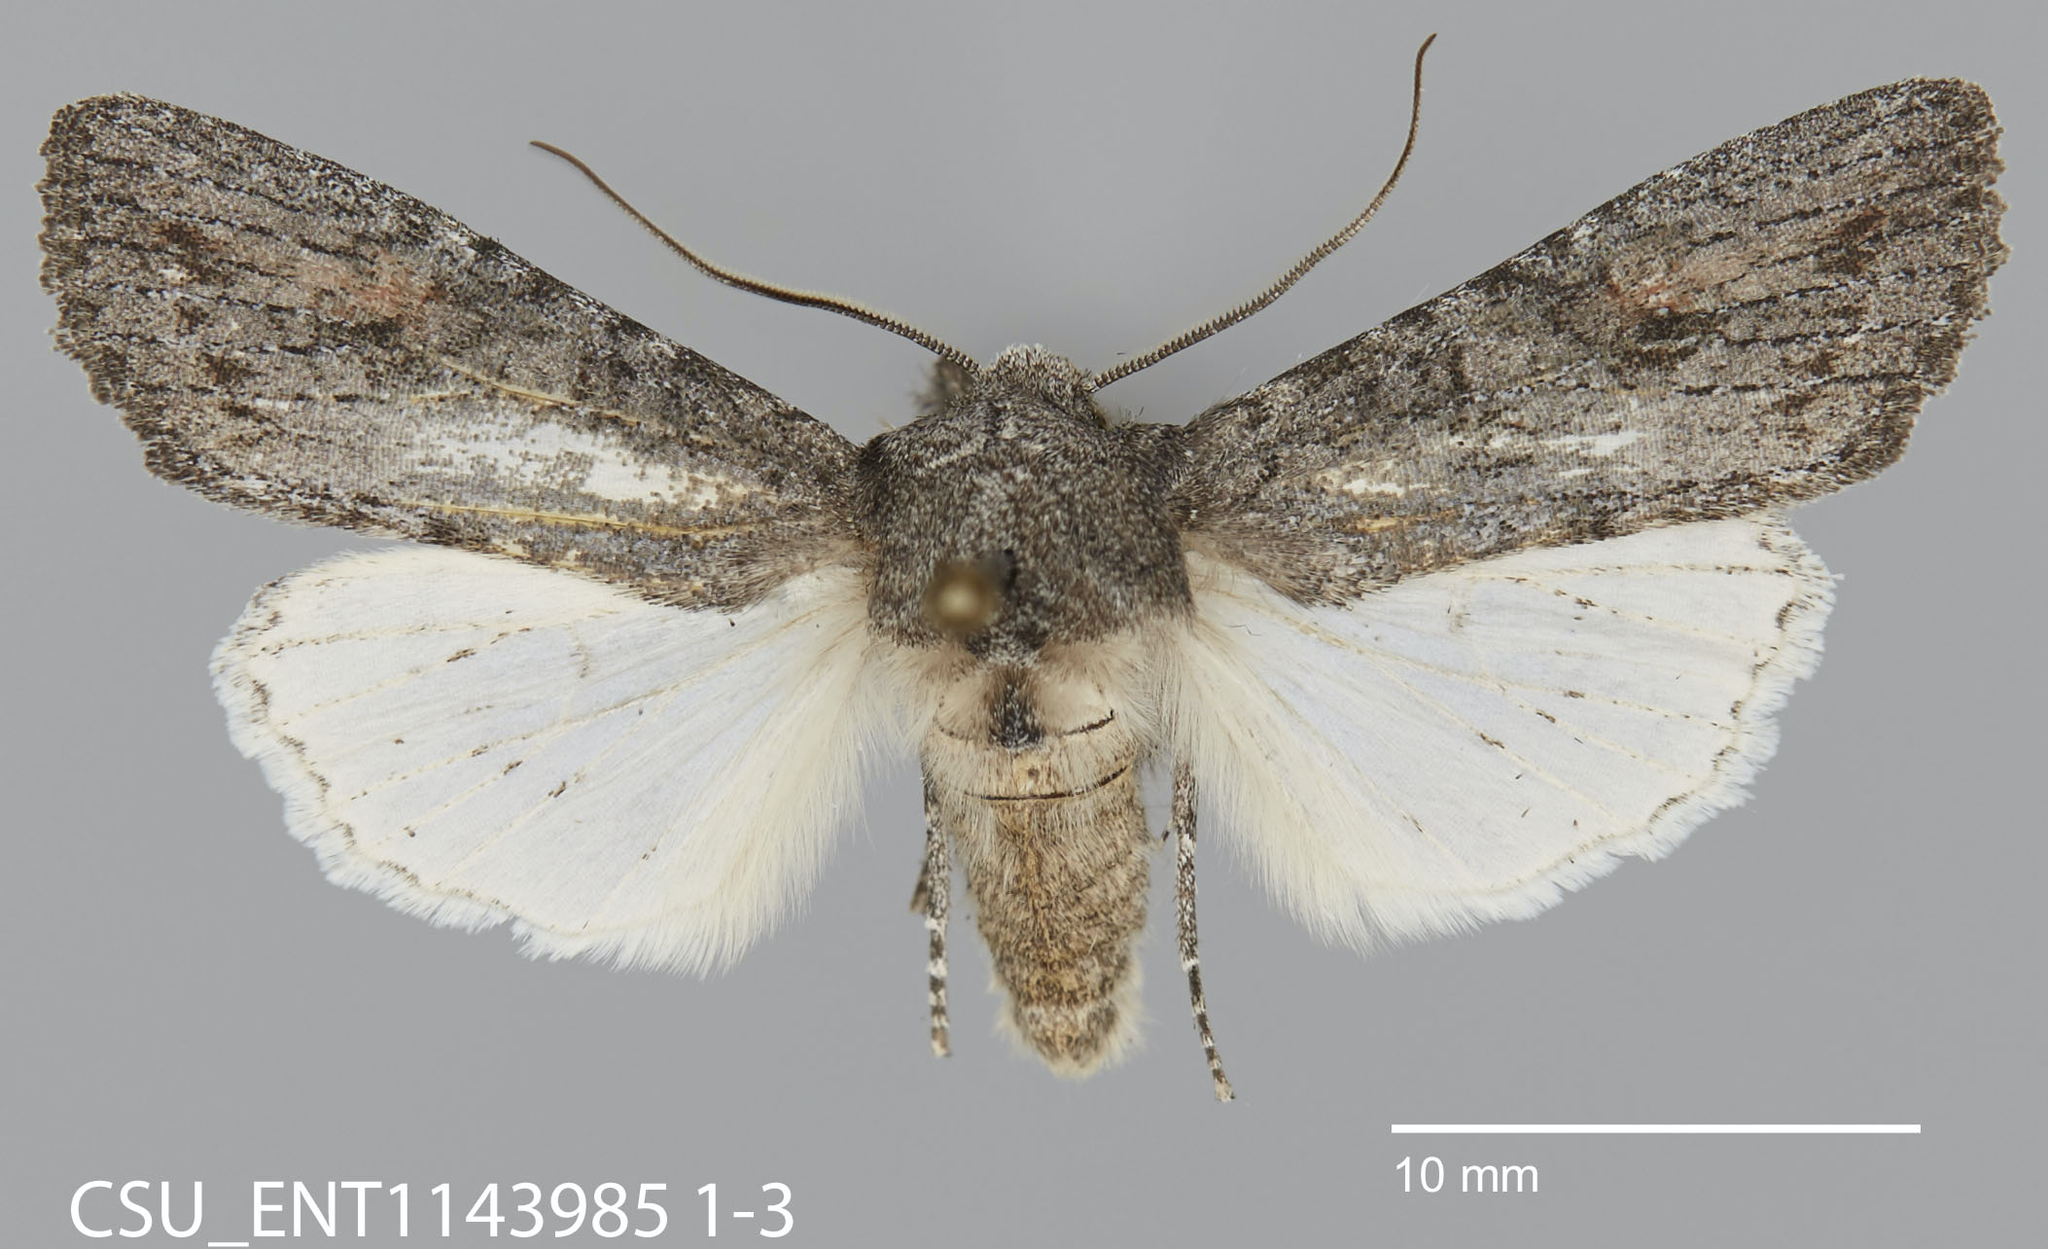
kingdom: Animalia
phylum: Arthropoda
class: Insecta
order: Lepidoptera
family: Noctuidae
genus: Egira
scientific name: Egira curialis
